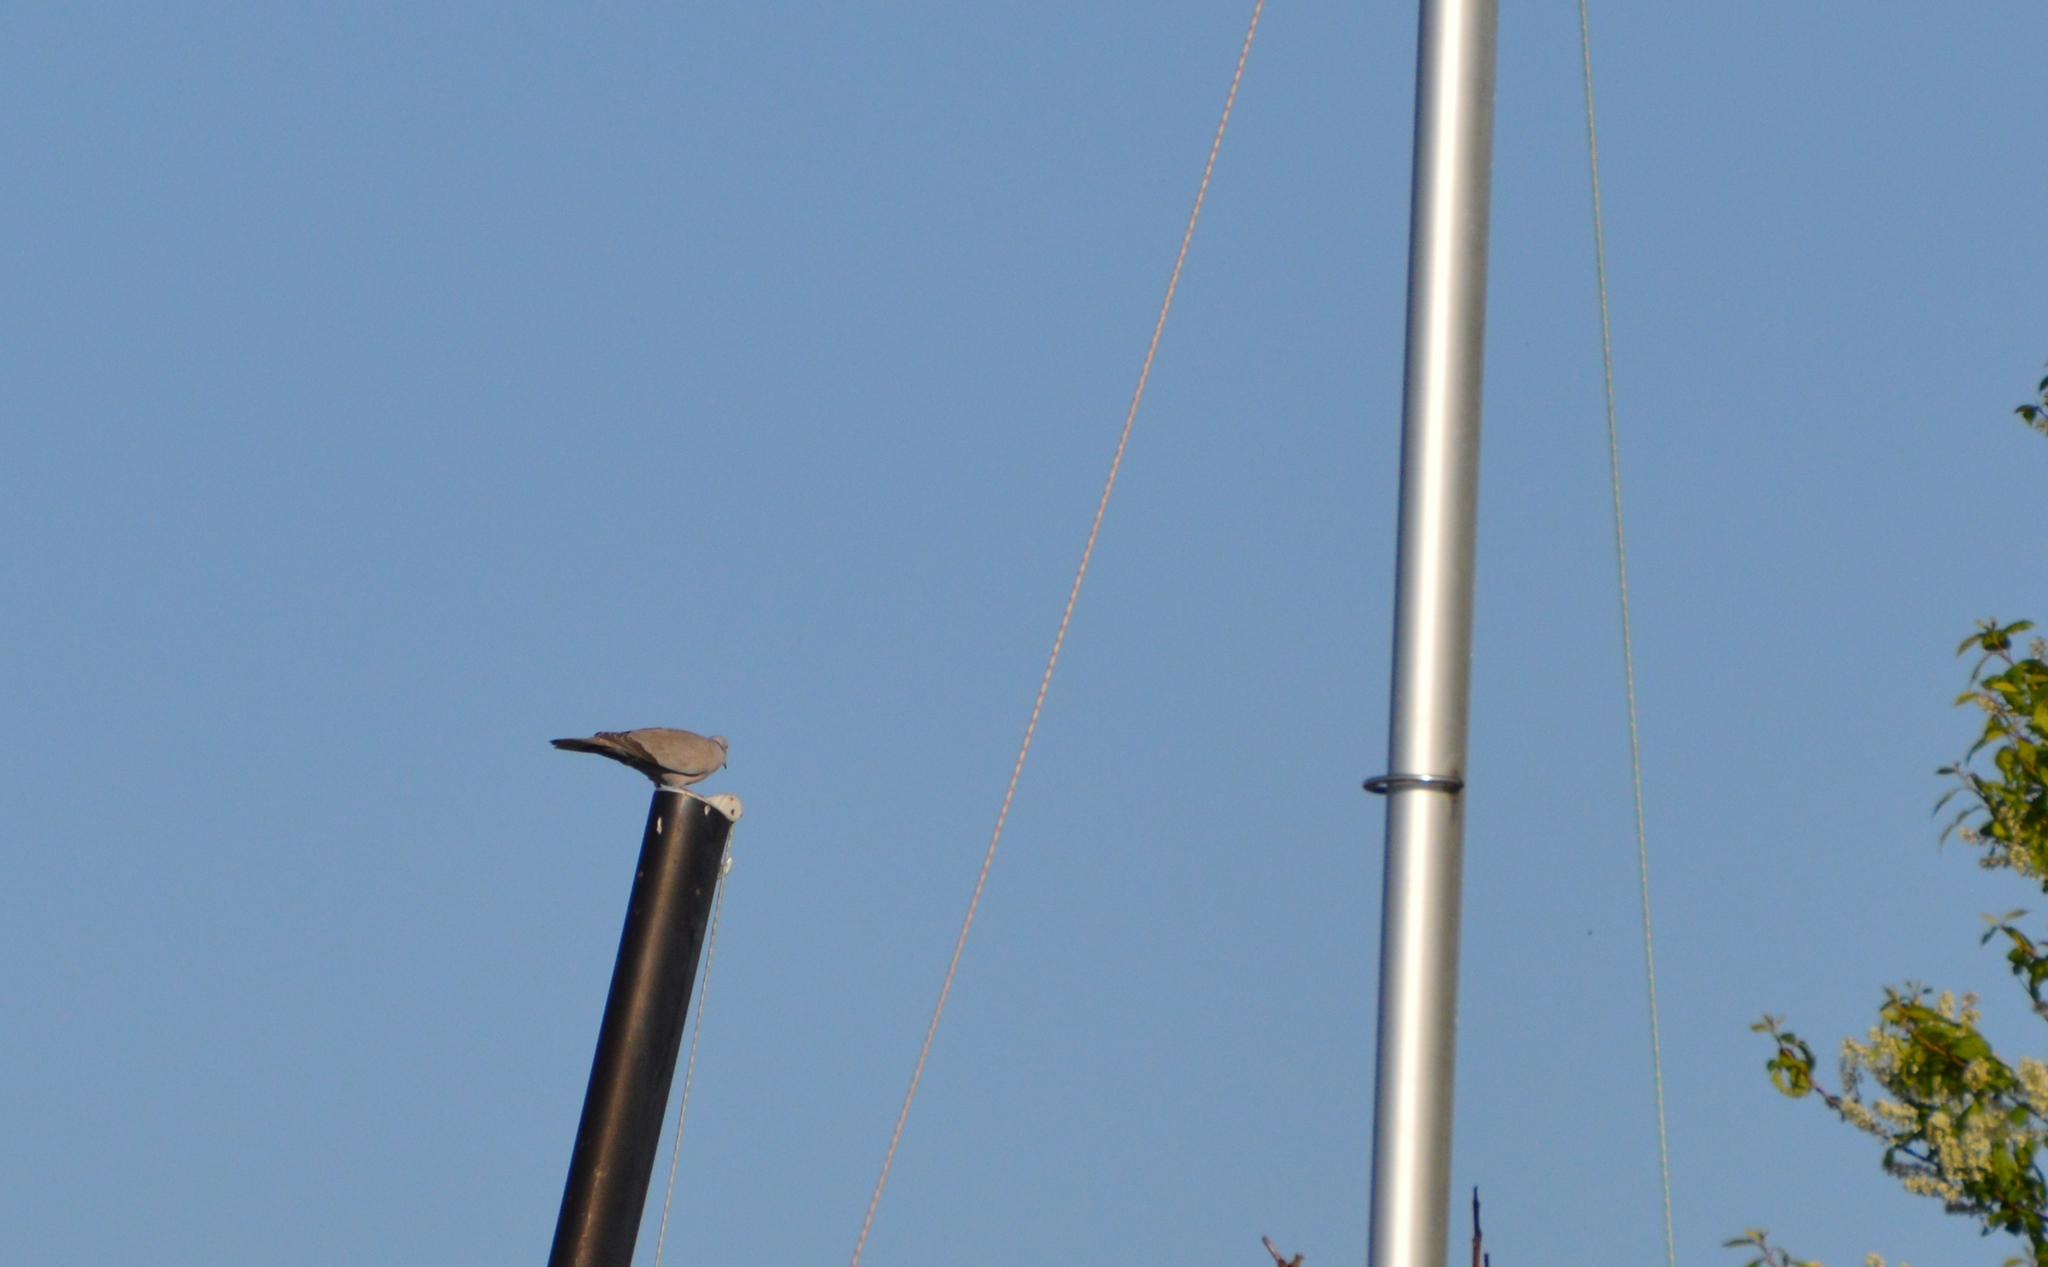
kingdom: Animalia
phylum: Chordata
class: Aves
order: Columbiformes
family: Columbidae
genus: Streptopelia
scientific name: Streptopelia decaocto
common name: Eurasian collared dove
